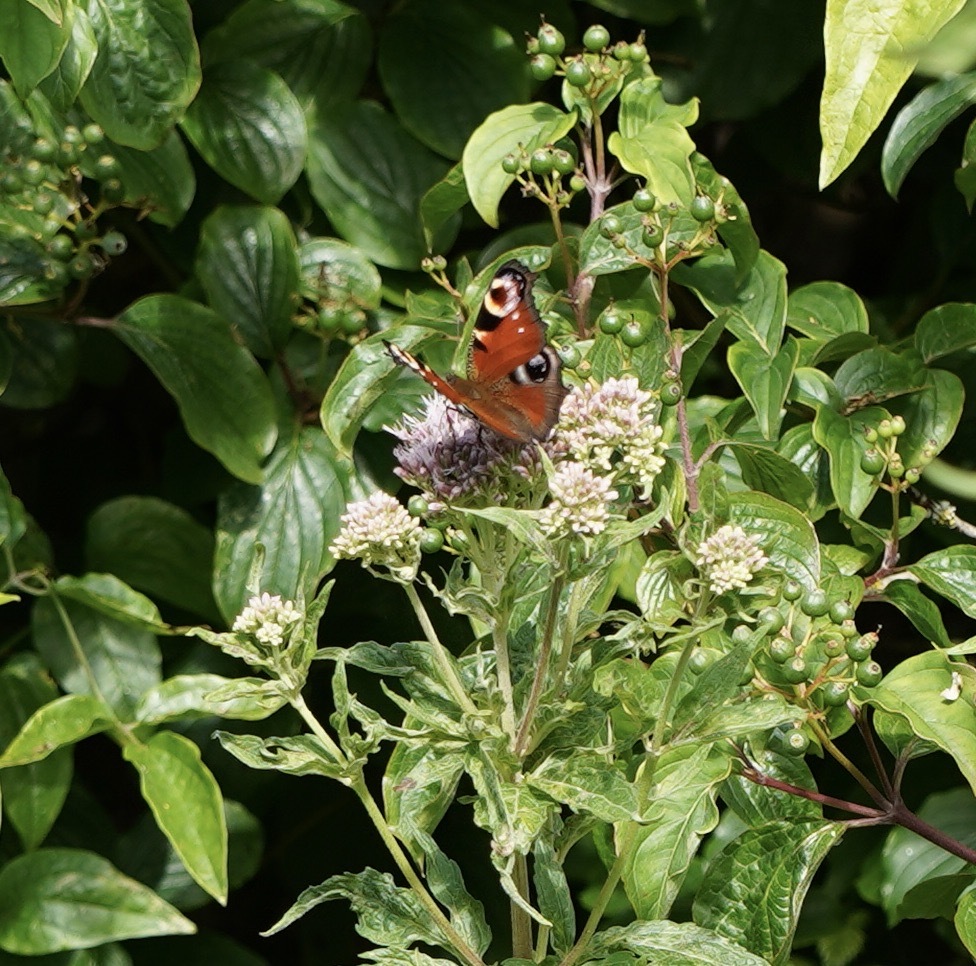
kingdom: Animalia
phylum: Arthropoda
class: Insecta
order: Lepidoptera
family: Nymphalidae
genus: Aglais
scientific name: Aglais io
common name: Peacock
